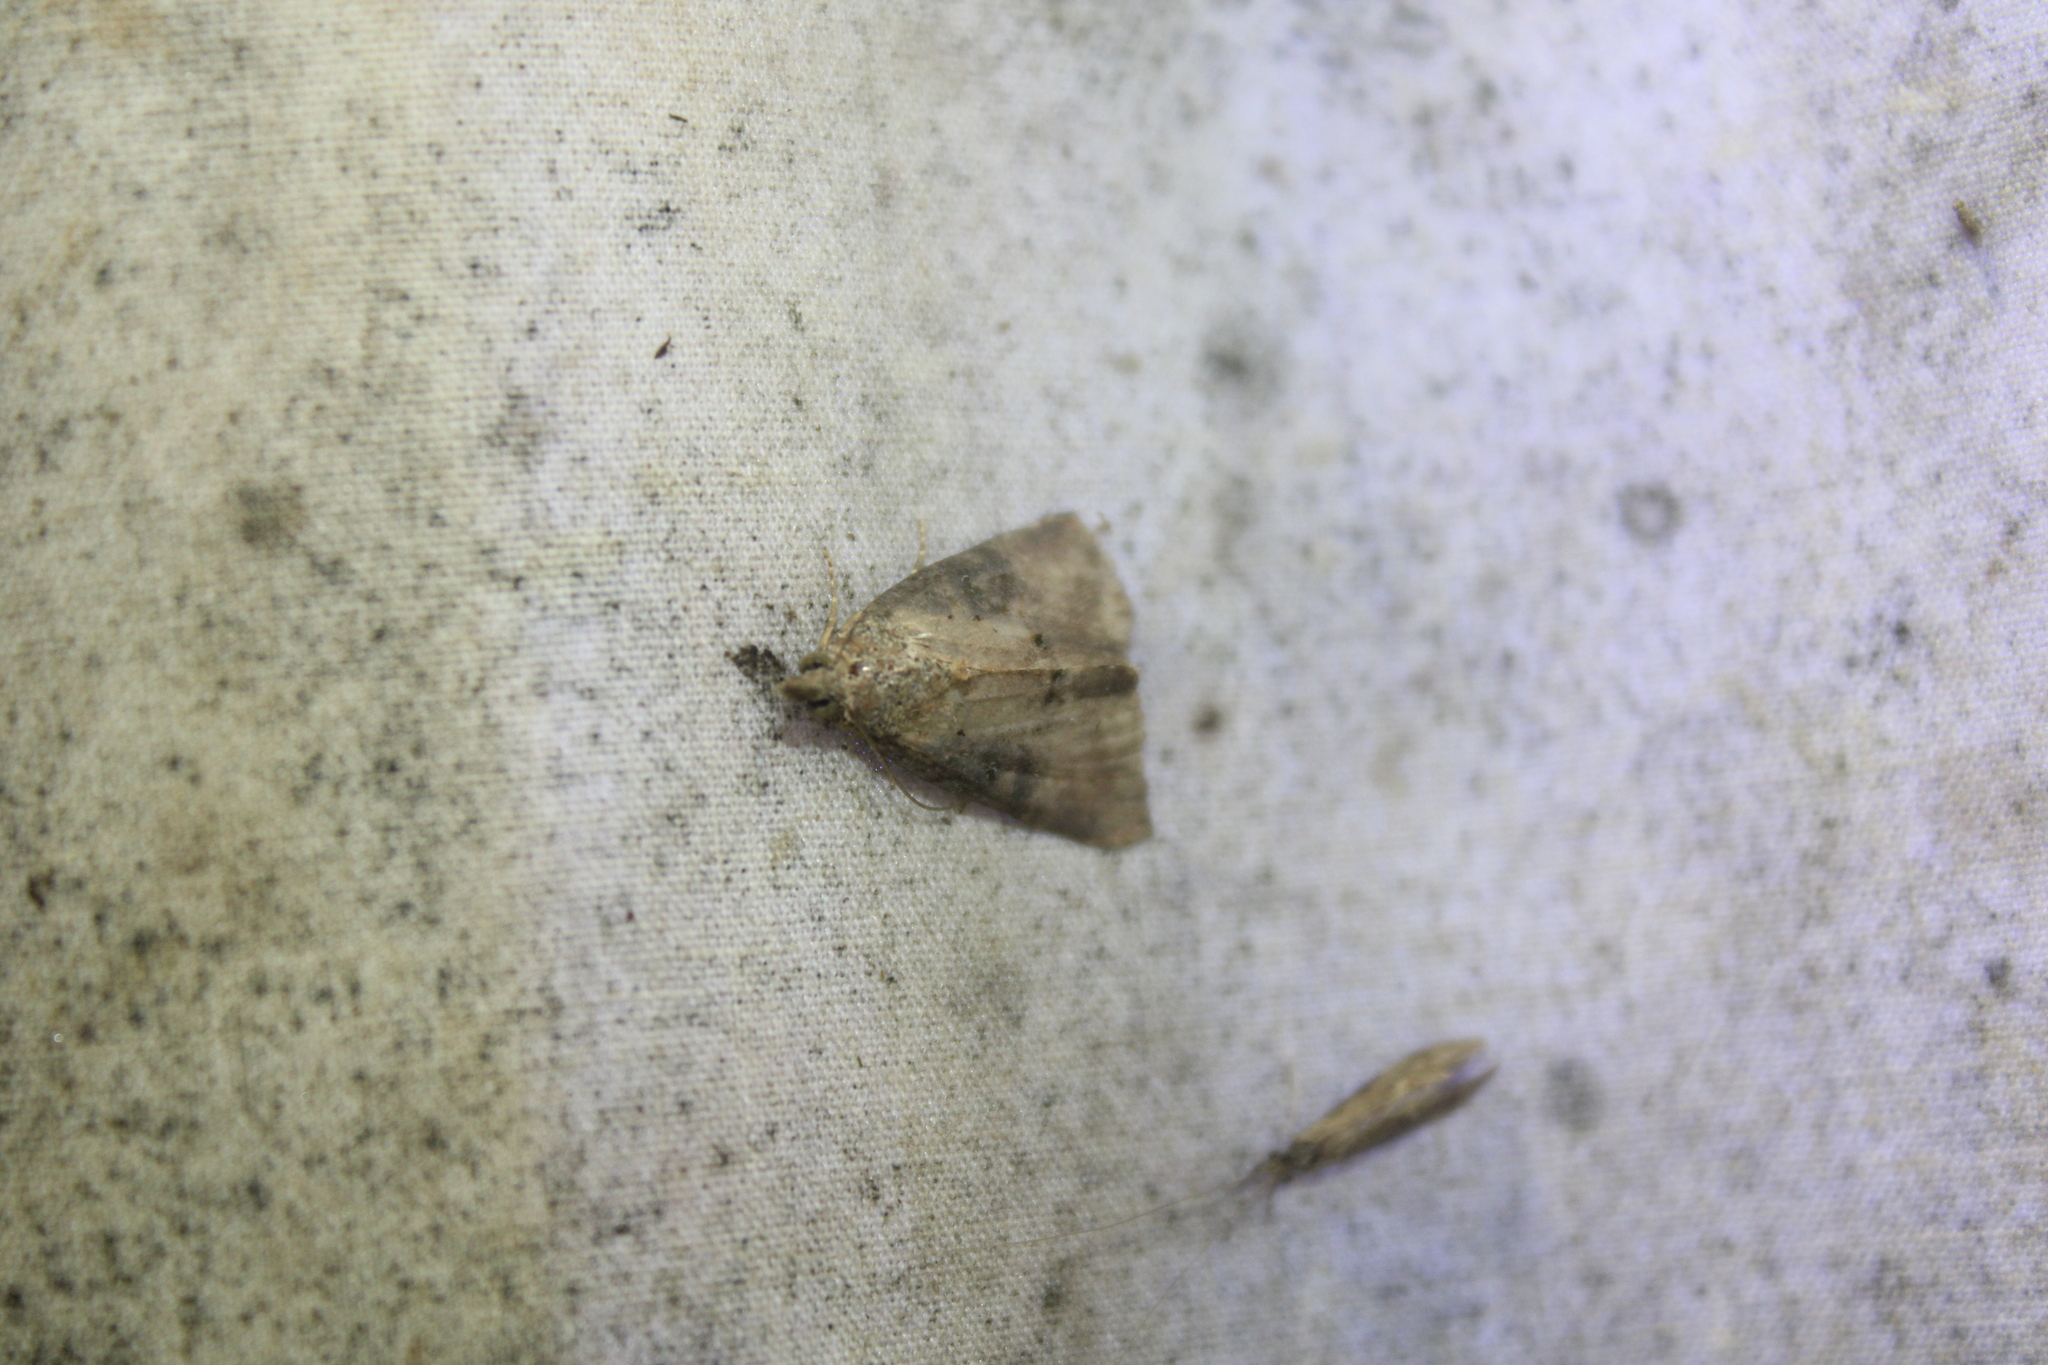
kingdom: Animalia
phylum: Arthropoda
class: Insecta
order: Lepidoptera
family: Erebidae
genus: Hypena
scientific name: Hypena scabra
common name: Green cloverworm
